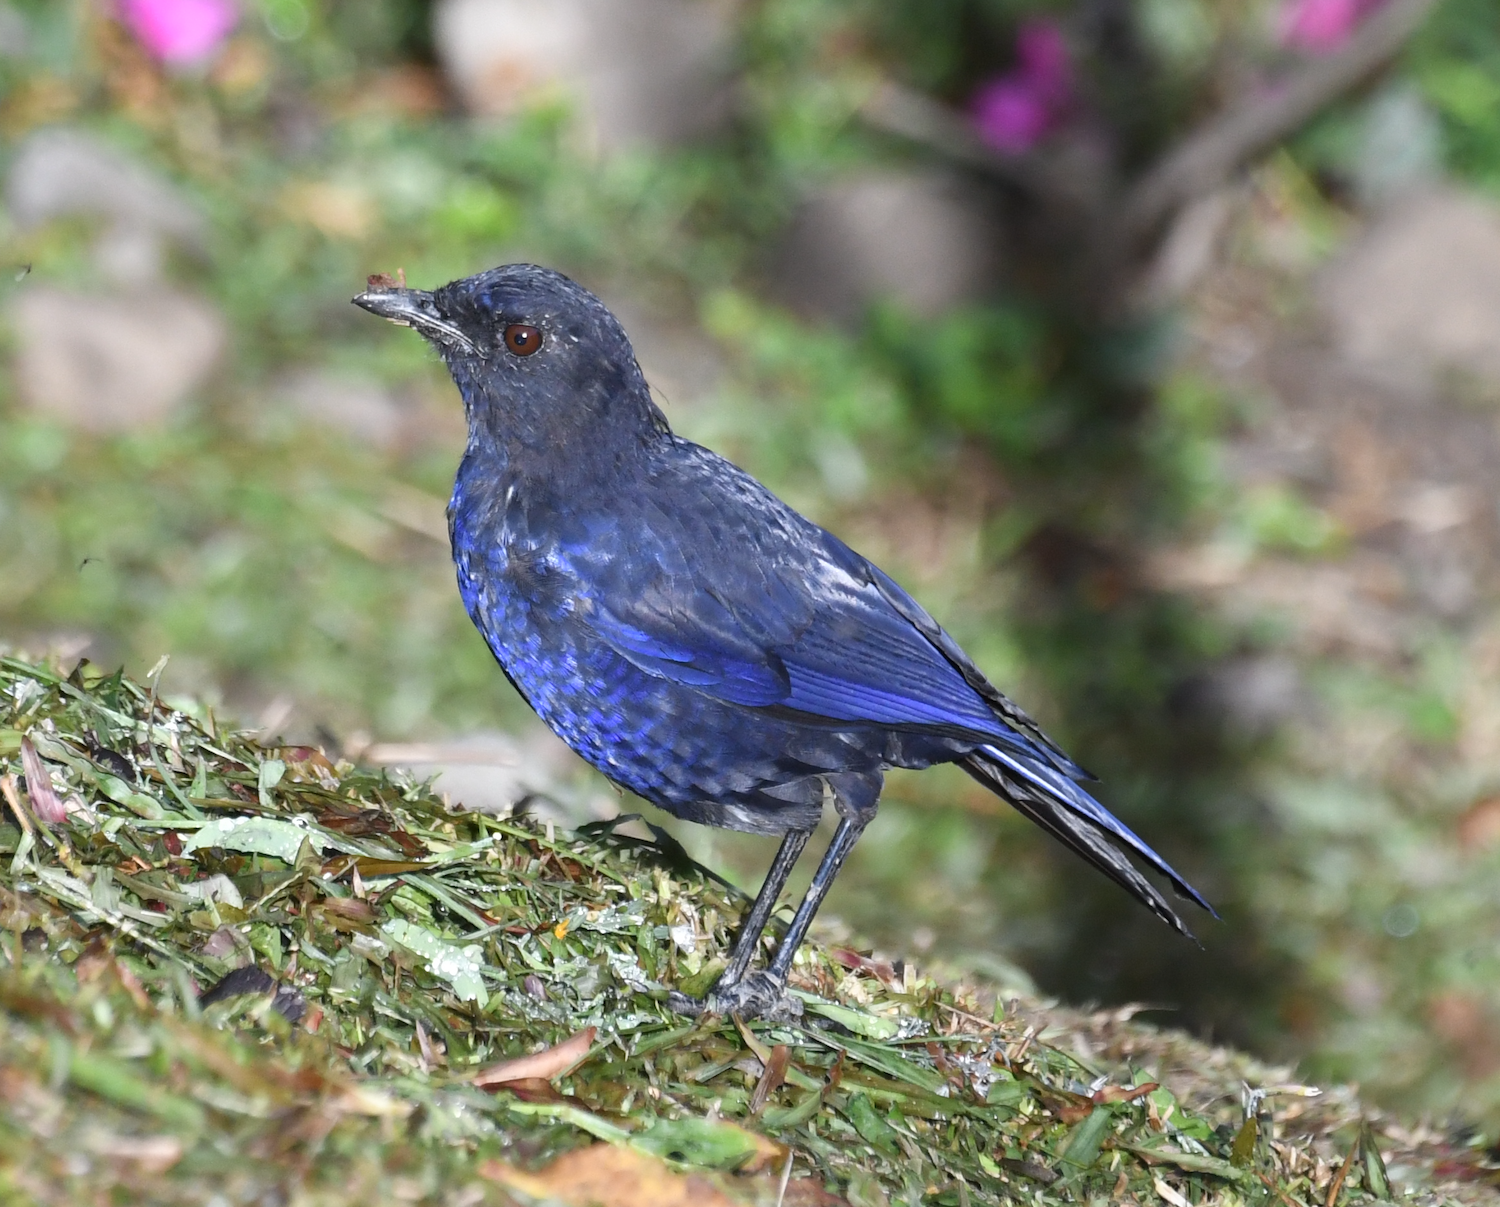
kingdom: Animalia
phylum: Chordata
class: Aves
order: Passeriformes
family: Muscicapidae
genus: Myophonus
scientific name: Myophonus insularis
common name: Taiwan whistling-thrush
